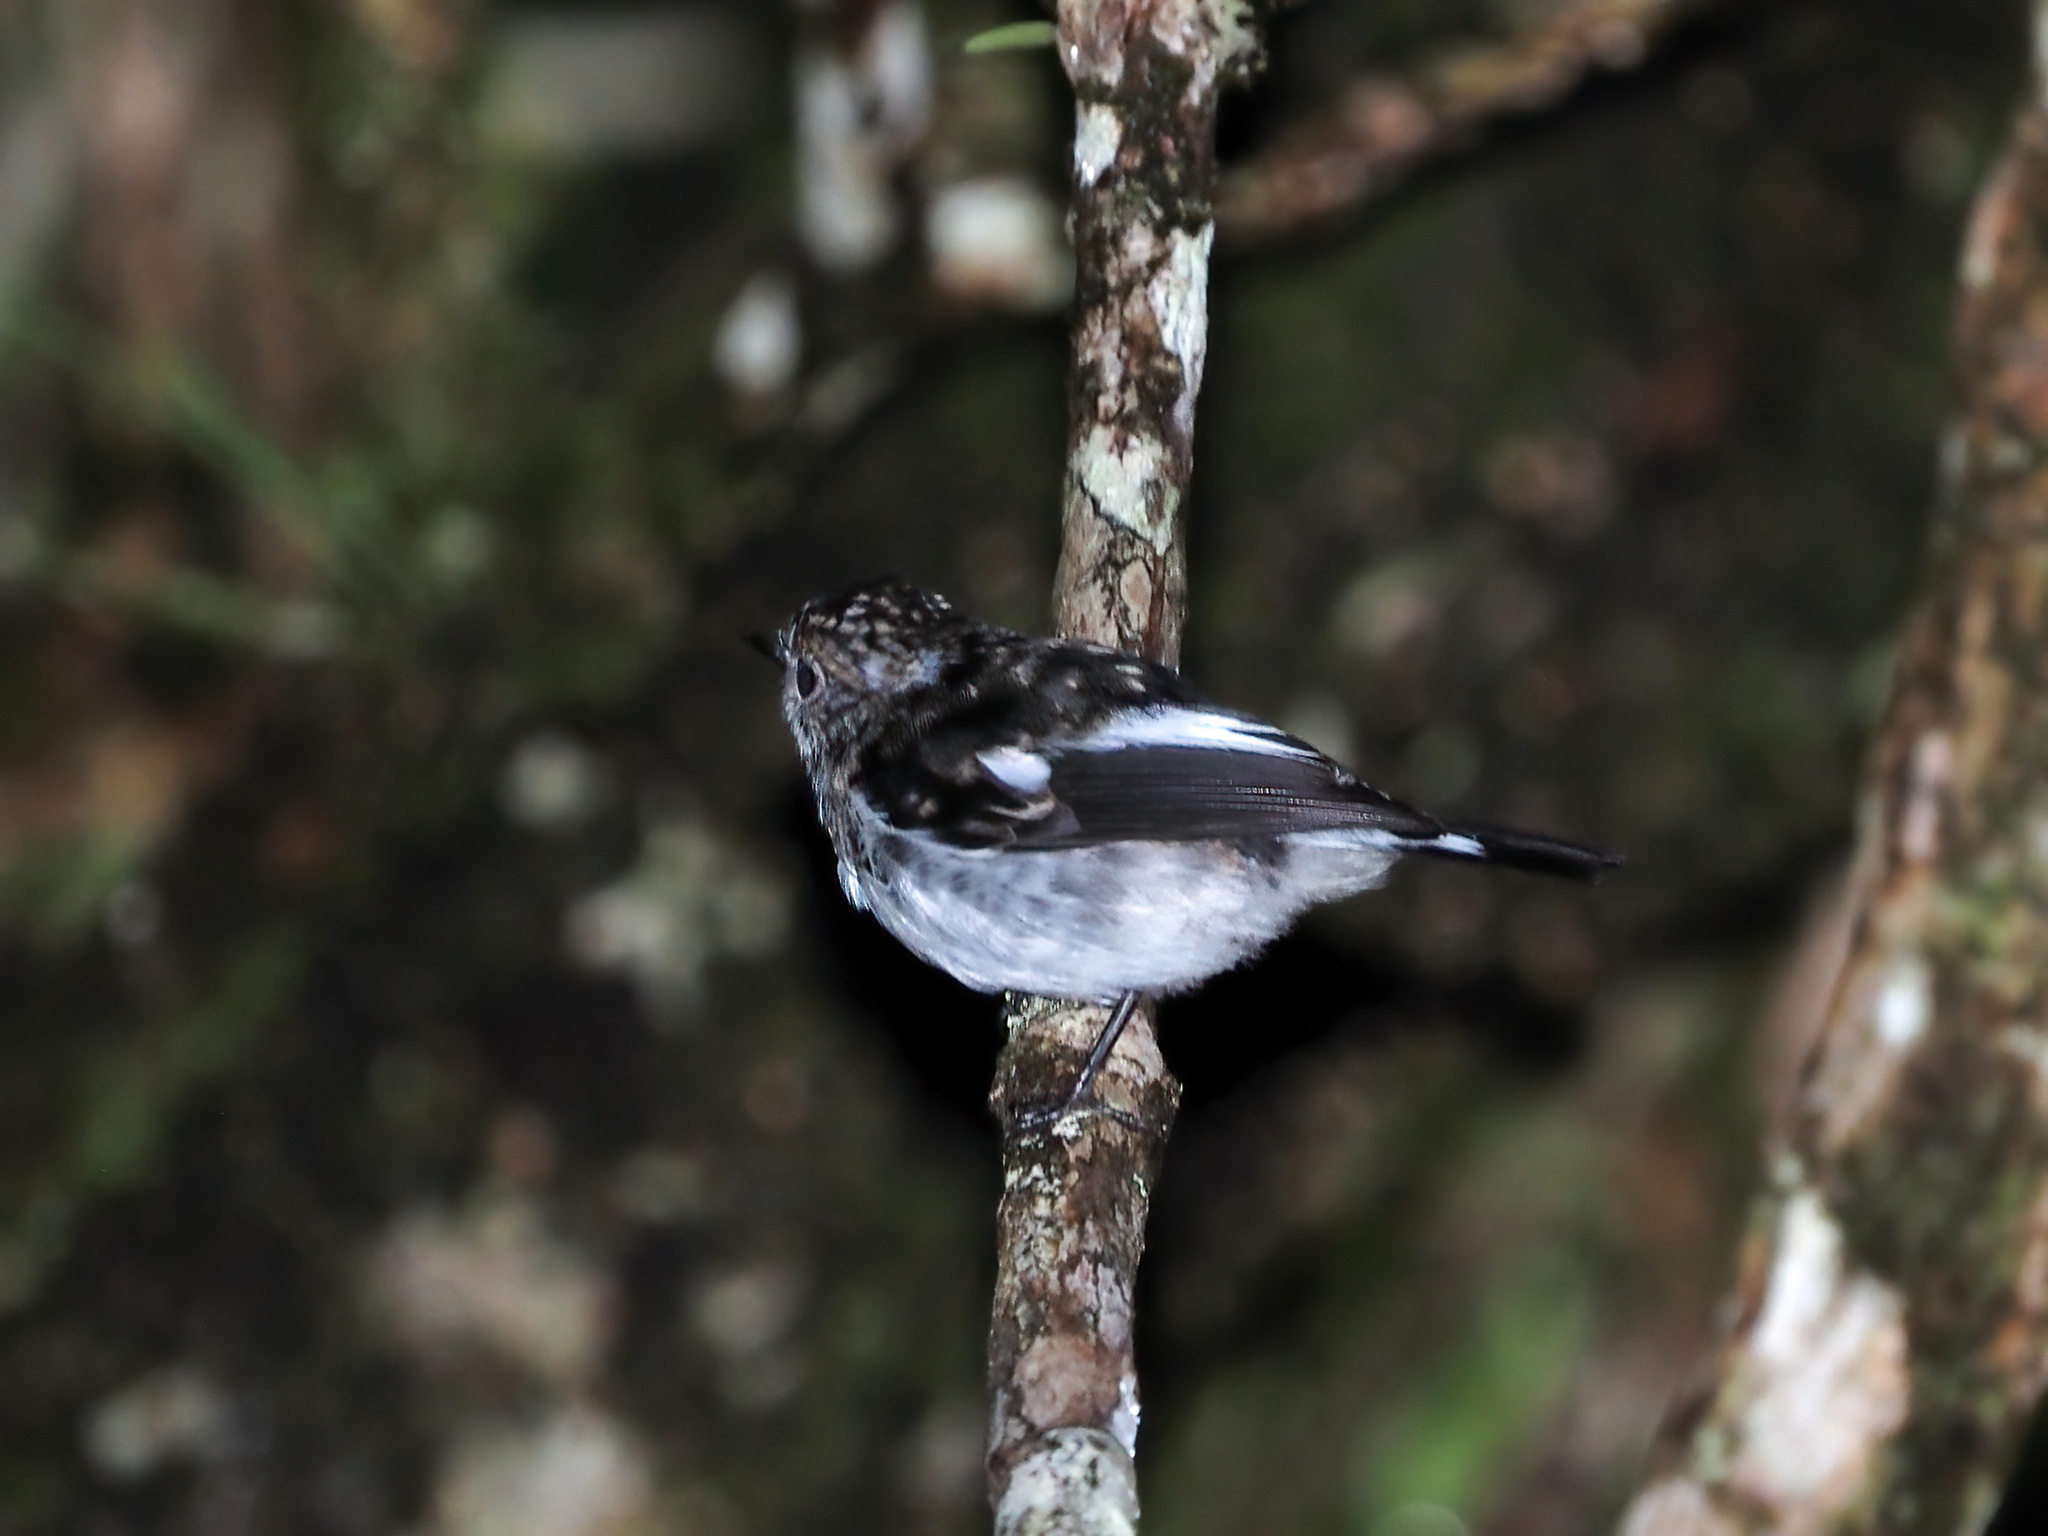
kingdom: Animalia
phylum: Chordata
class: Aves
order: Passeriformes
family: Muscicapidae
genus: Ficedula
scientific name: Ficedula westermanni
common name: Little pied flycatcher
